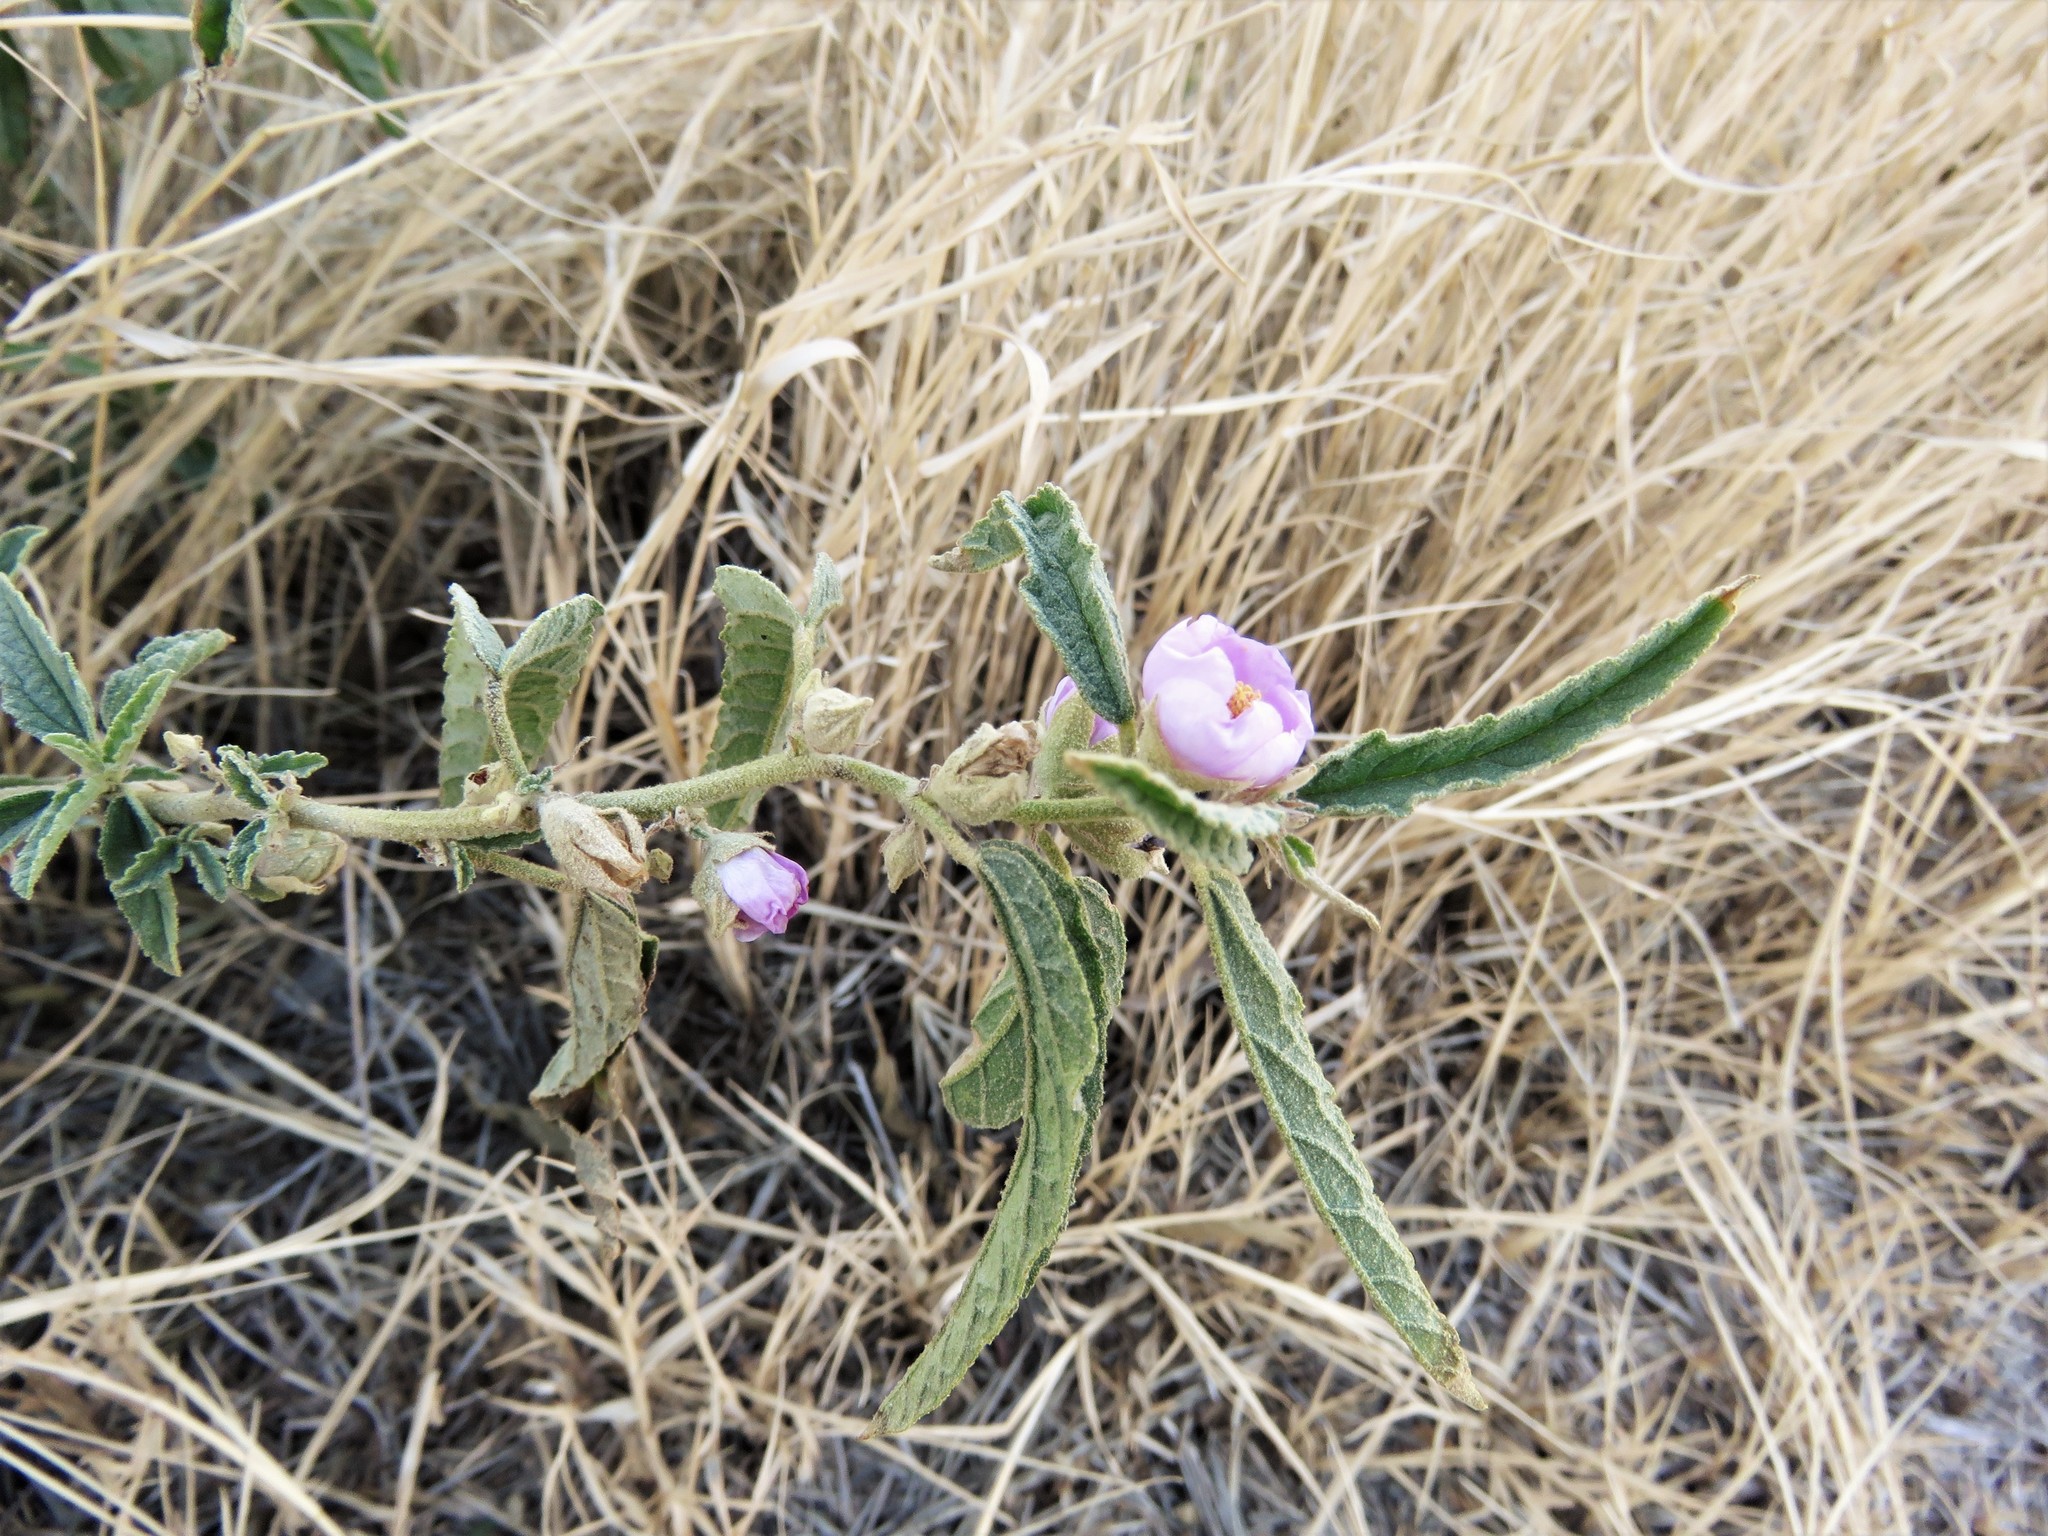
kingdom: Plantae
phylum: Tracheophyta
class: Magnoliopsida
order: Malvales
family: Malvaceae
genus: Sphaeralcea
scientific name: Sphaeralcea angustifolia
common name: Copper globe-mallow
